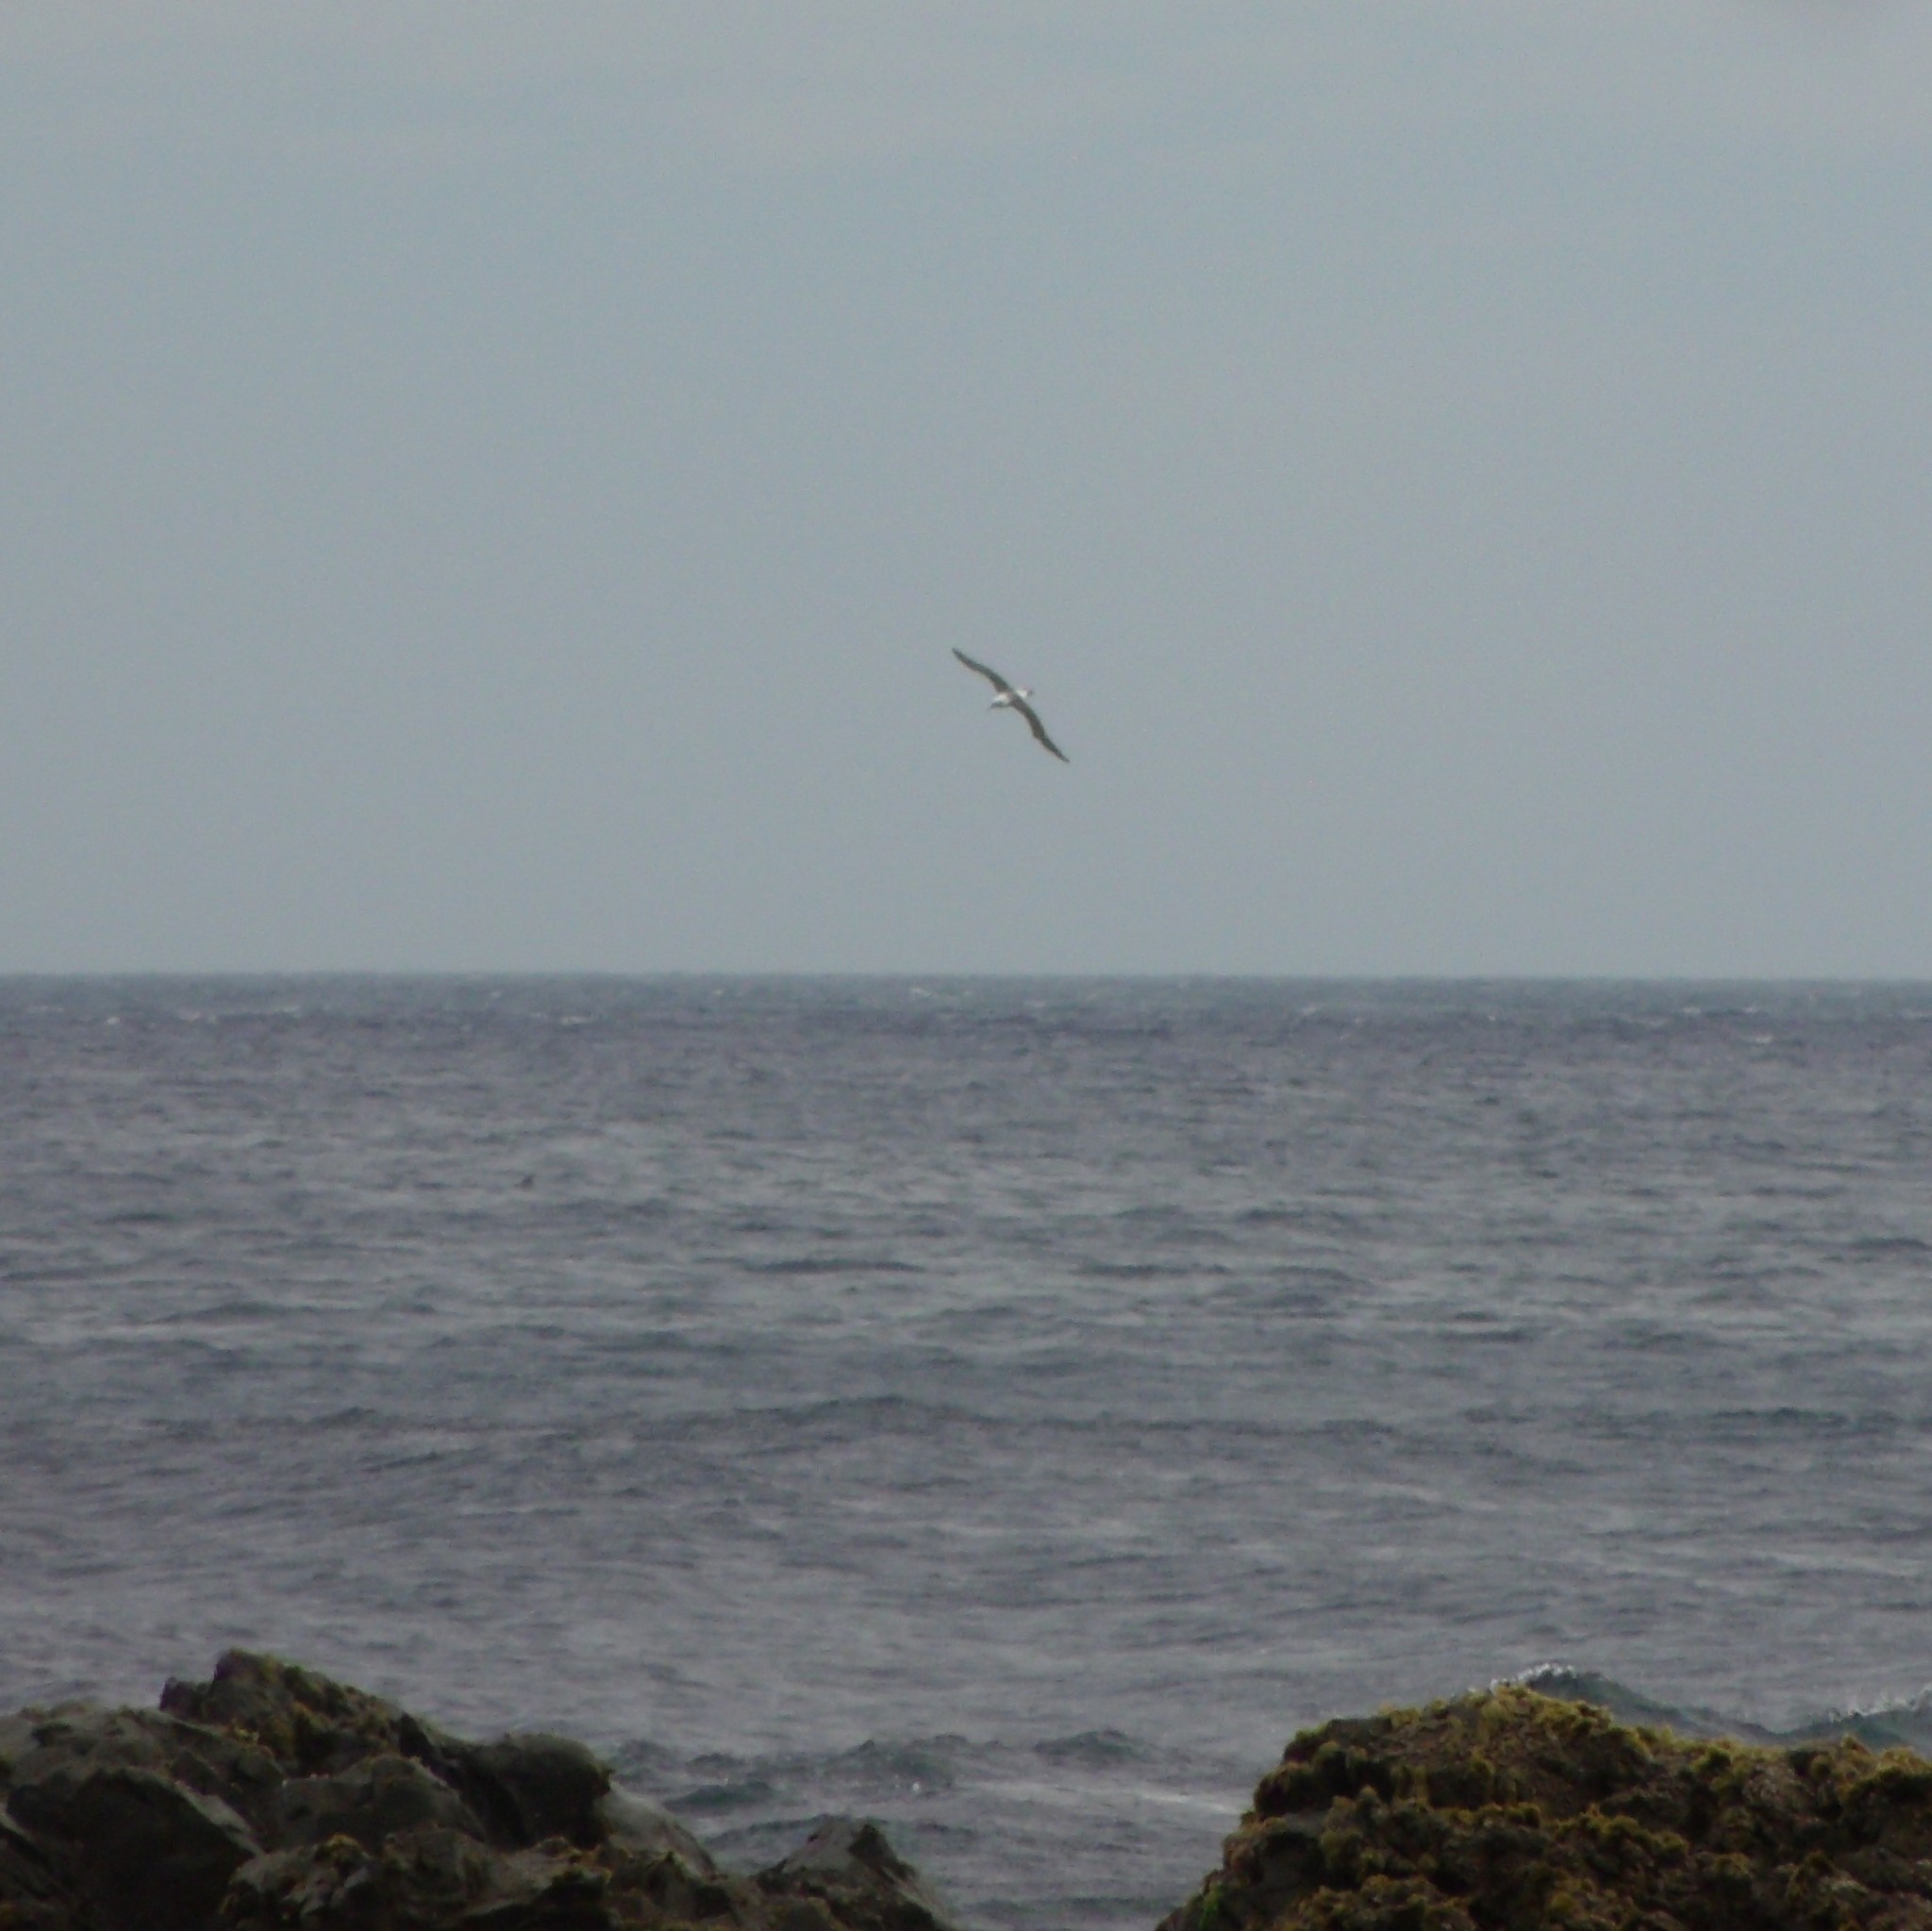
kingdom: Animalia
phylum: Chordata
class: Aves
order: Procellariiformes
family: Diomedeidae
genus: Thalassarche
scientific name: Thalassarche melanophris
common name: Black-browed albatross
